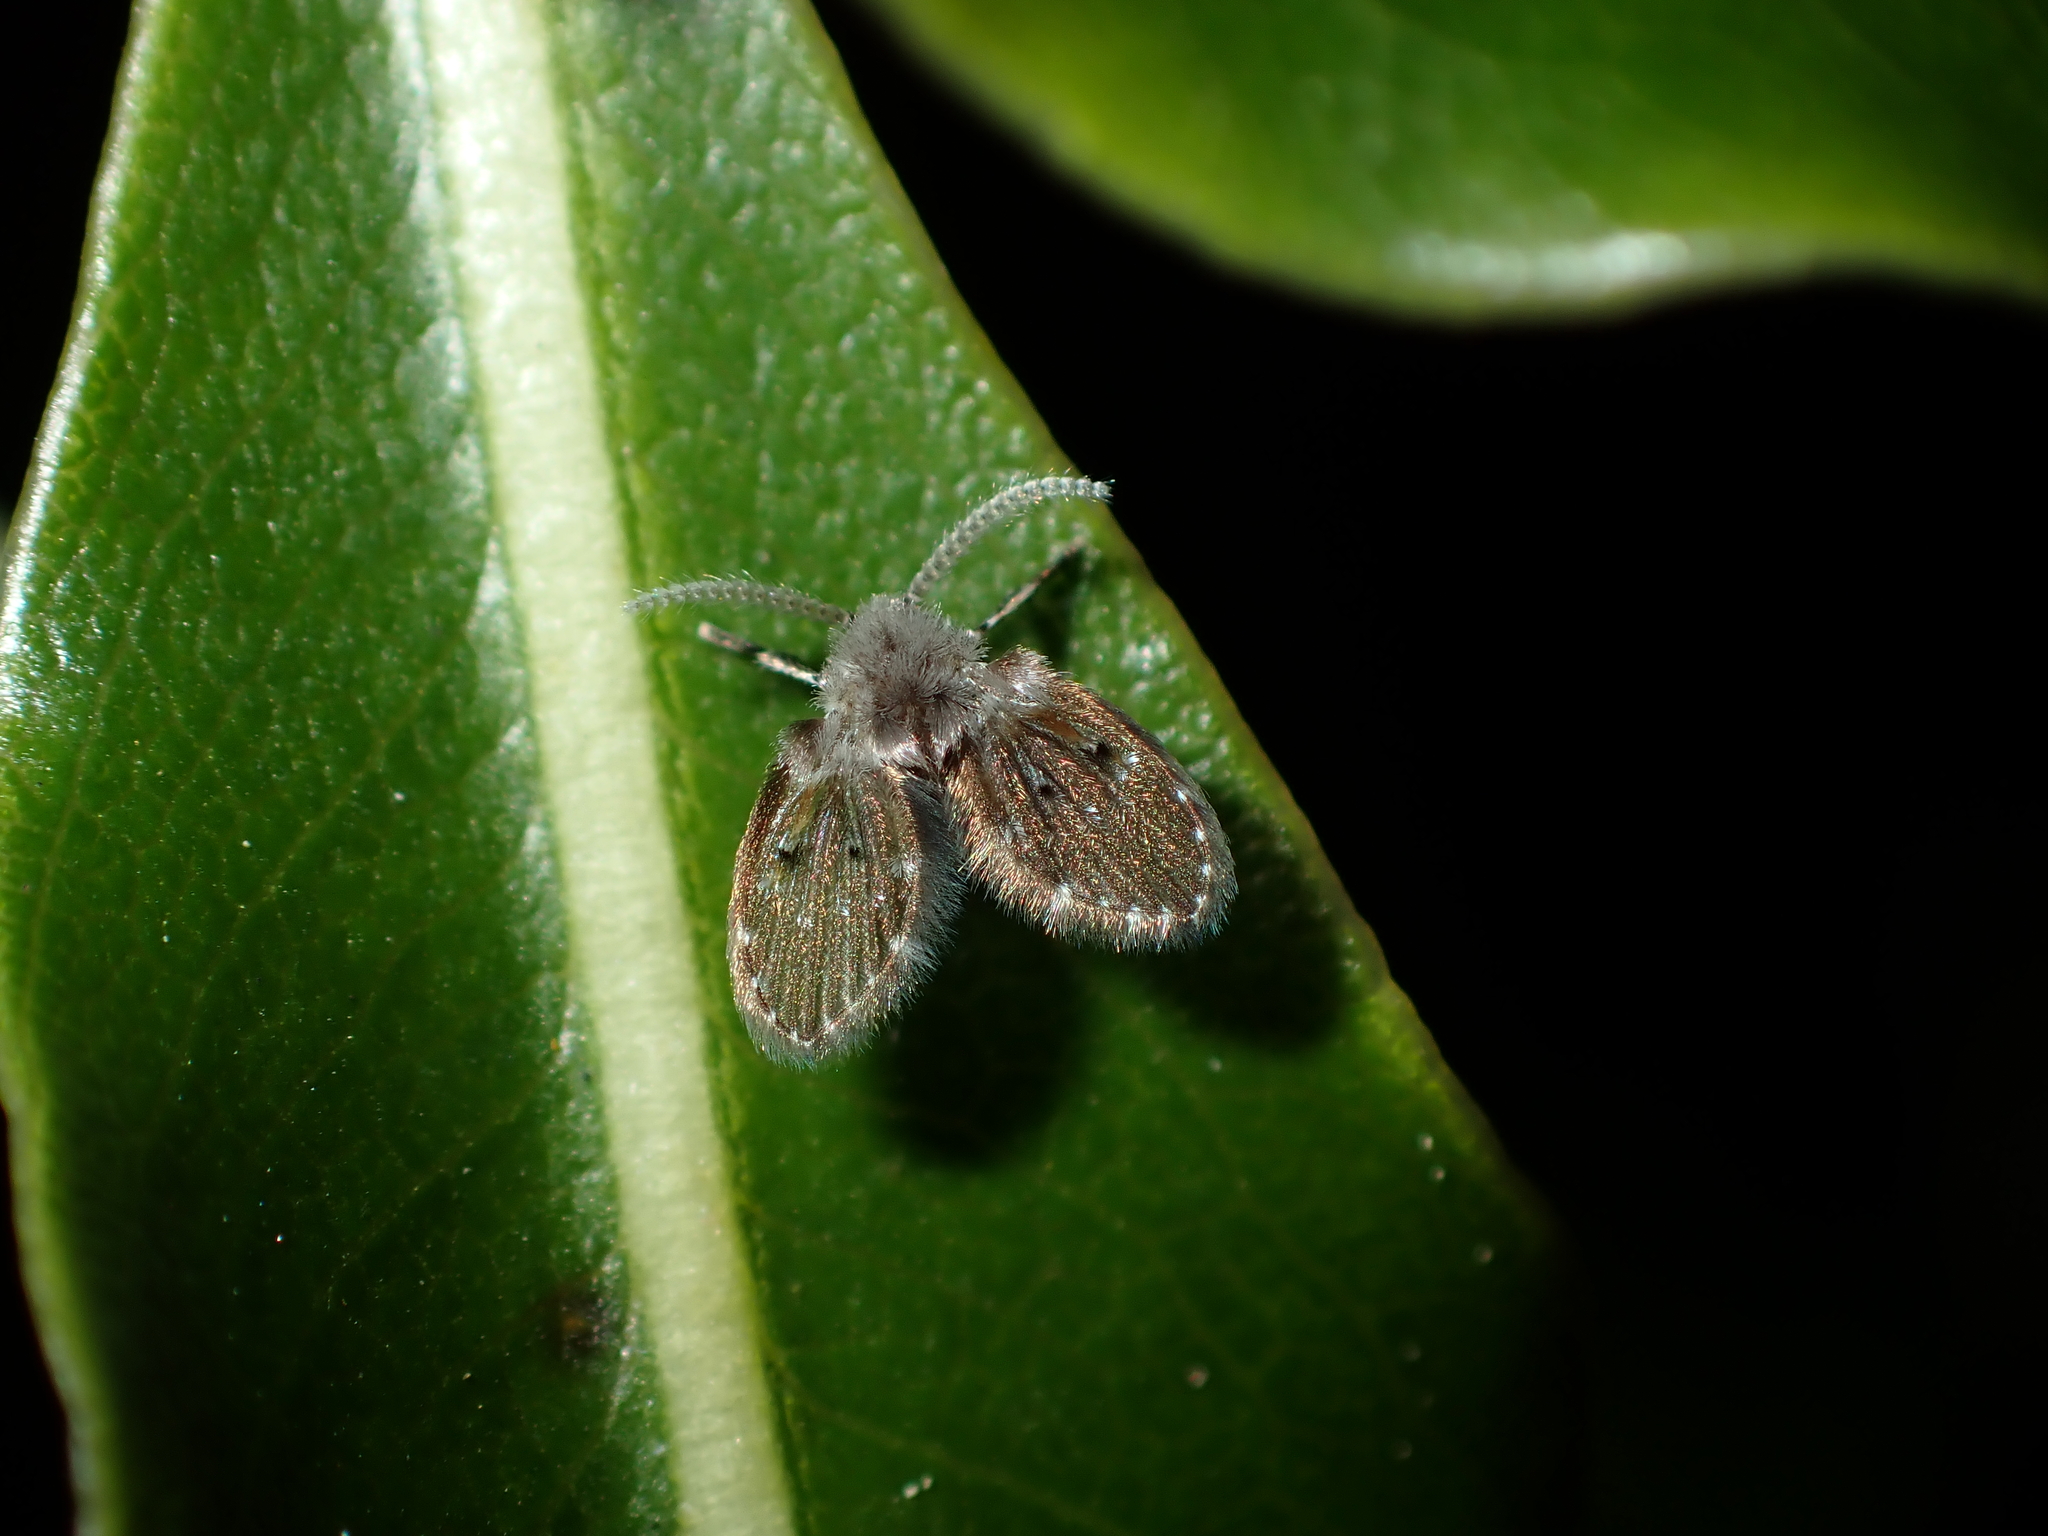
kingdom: Animalia
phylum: Arthropoda
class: Insecta
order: Diptera
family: Psychodidae
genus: Clogmia
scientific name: Clogmia albipunctatus
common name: White-spotted moth fly
